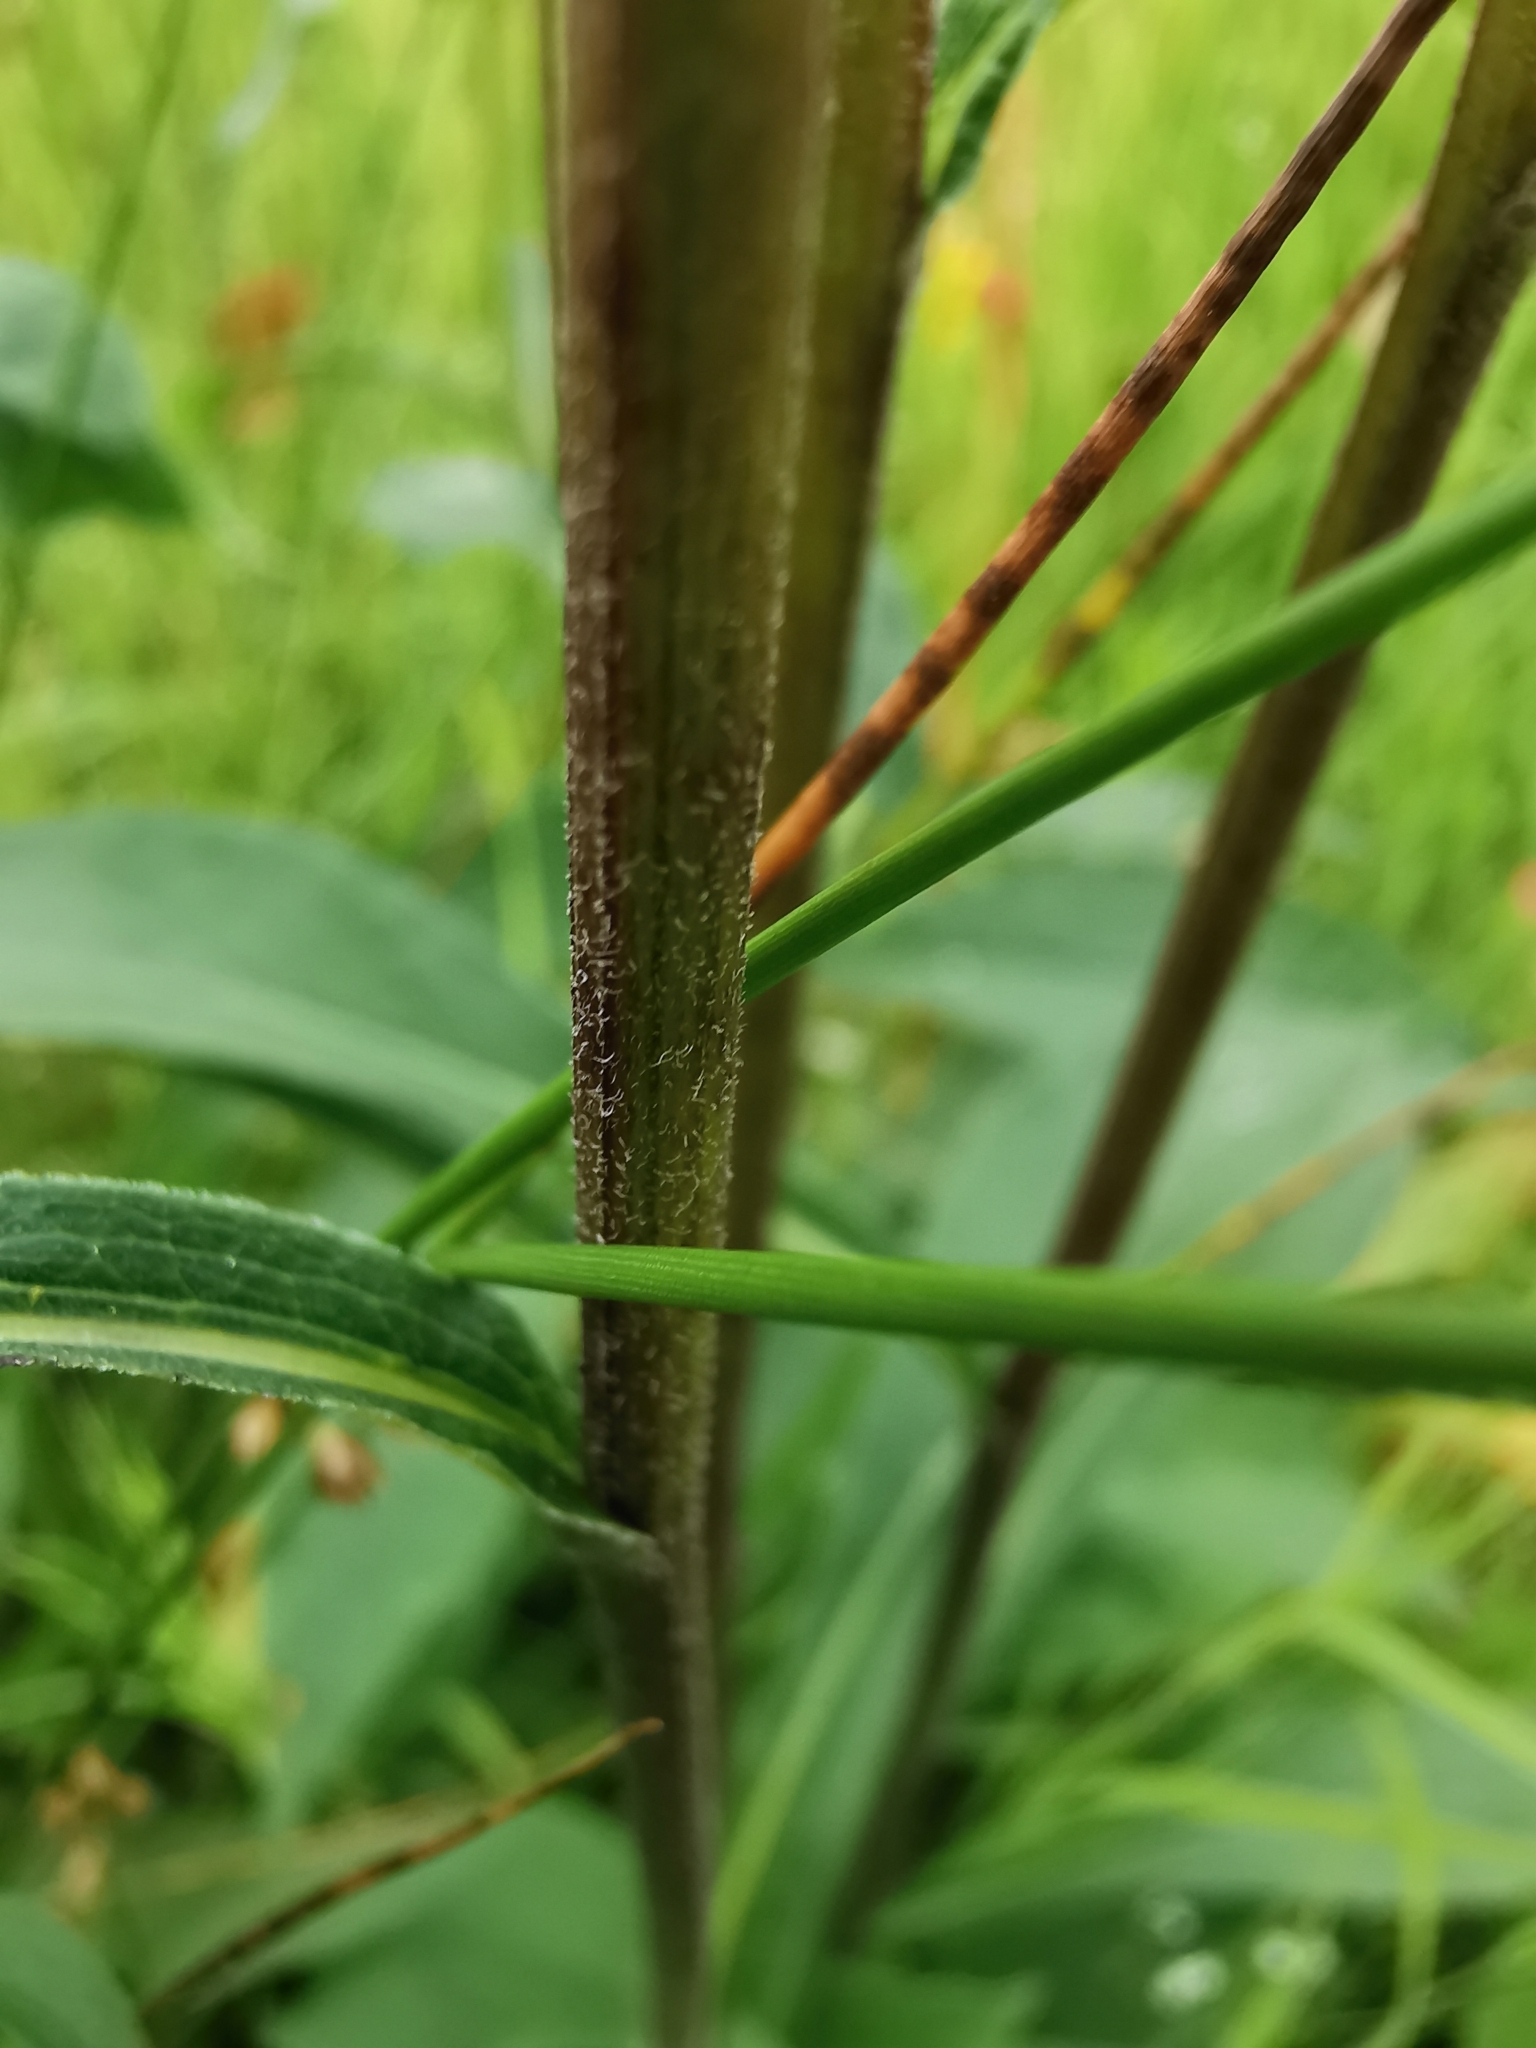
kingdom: Plantae
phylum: Tracheophyta
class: Magnoliopsida
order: Asterales
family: Asteraceae
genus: Solidago
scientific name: Solidago virgaurea
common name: Goldenrod
